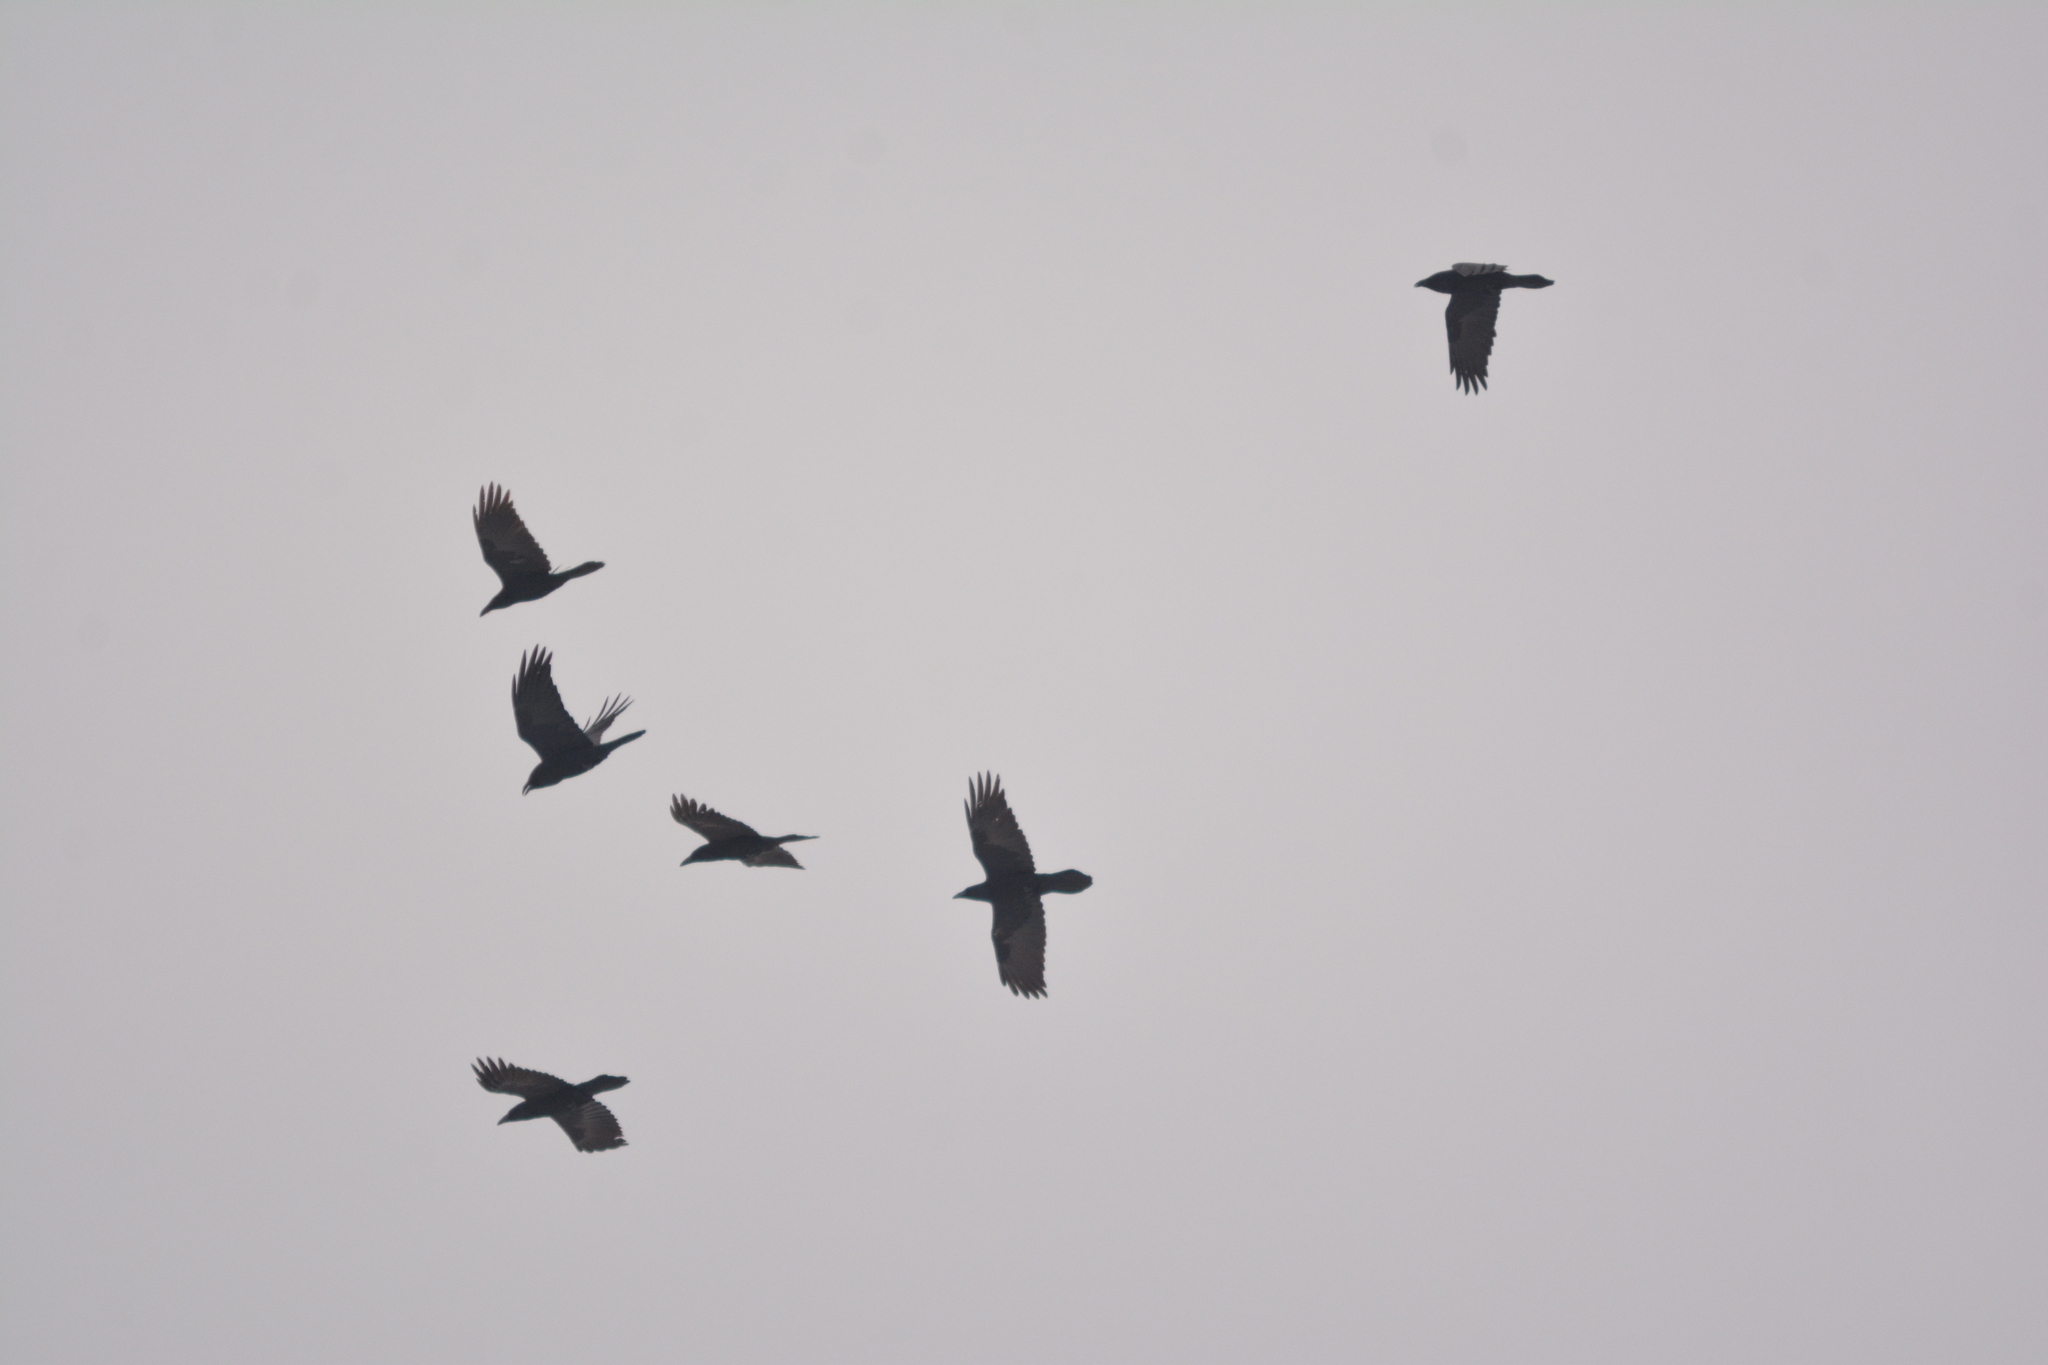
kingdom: Animalia
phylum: Chordata
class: Aves
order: Passeriformes
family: Corvidae
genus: Corvus
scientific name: Corvus corax
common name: Common raven
